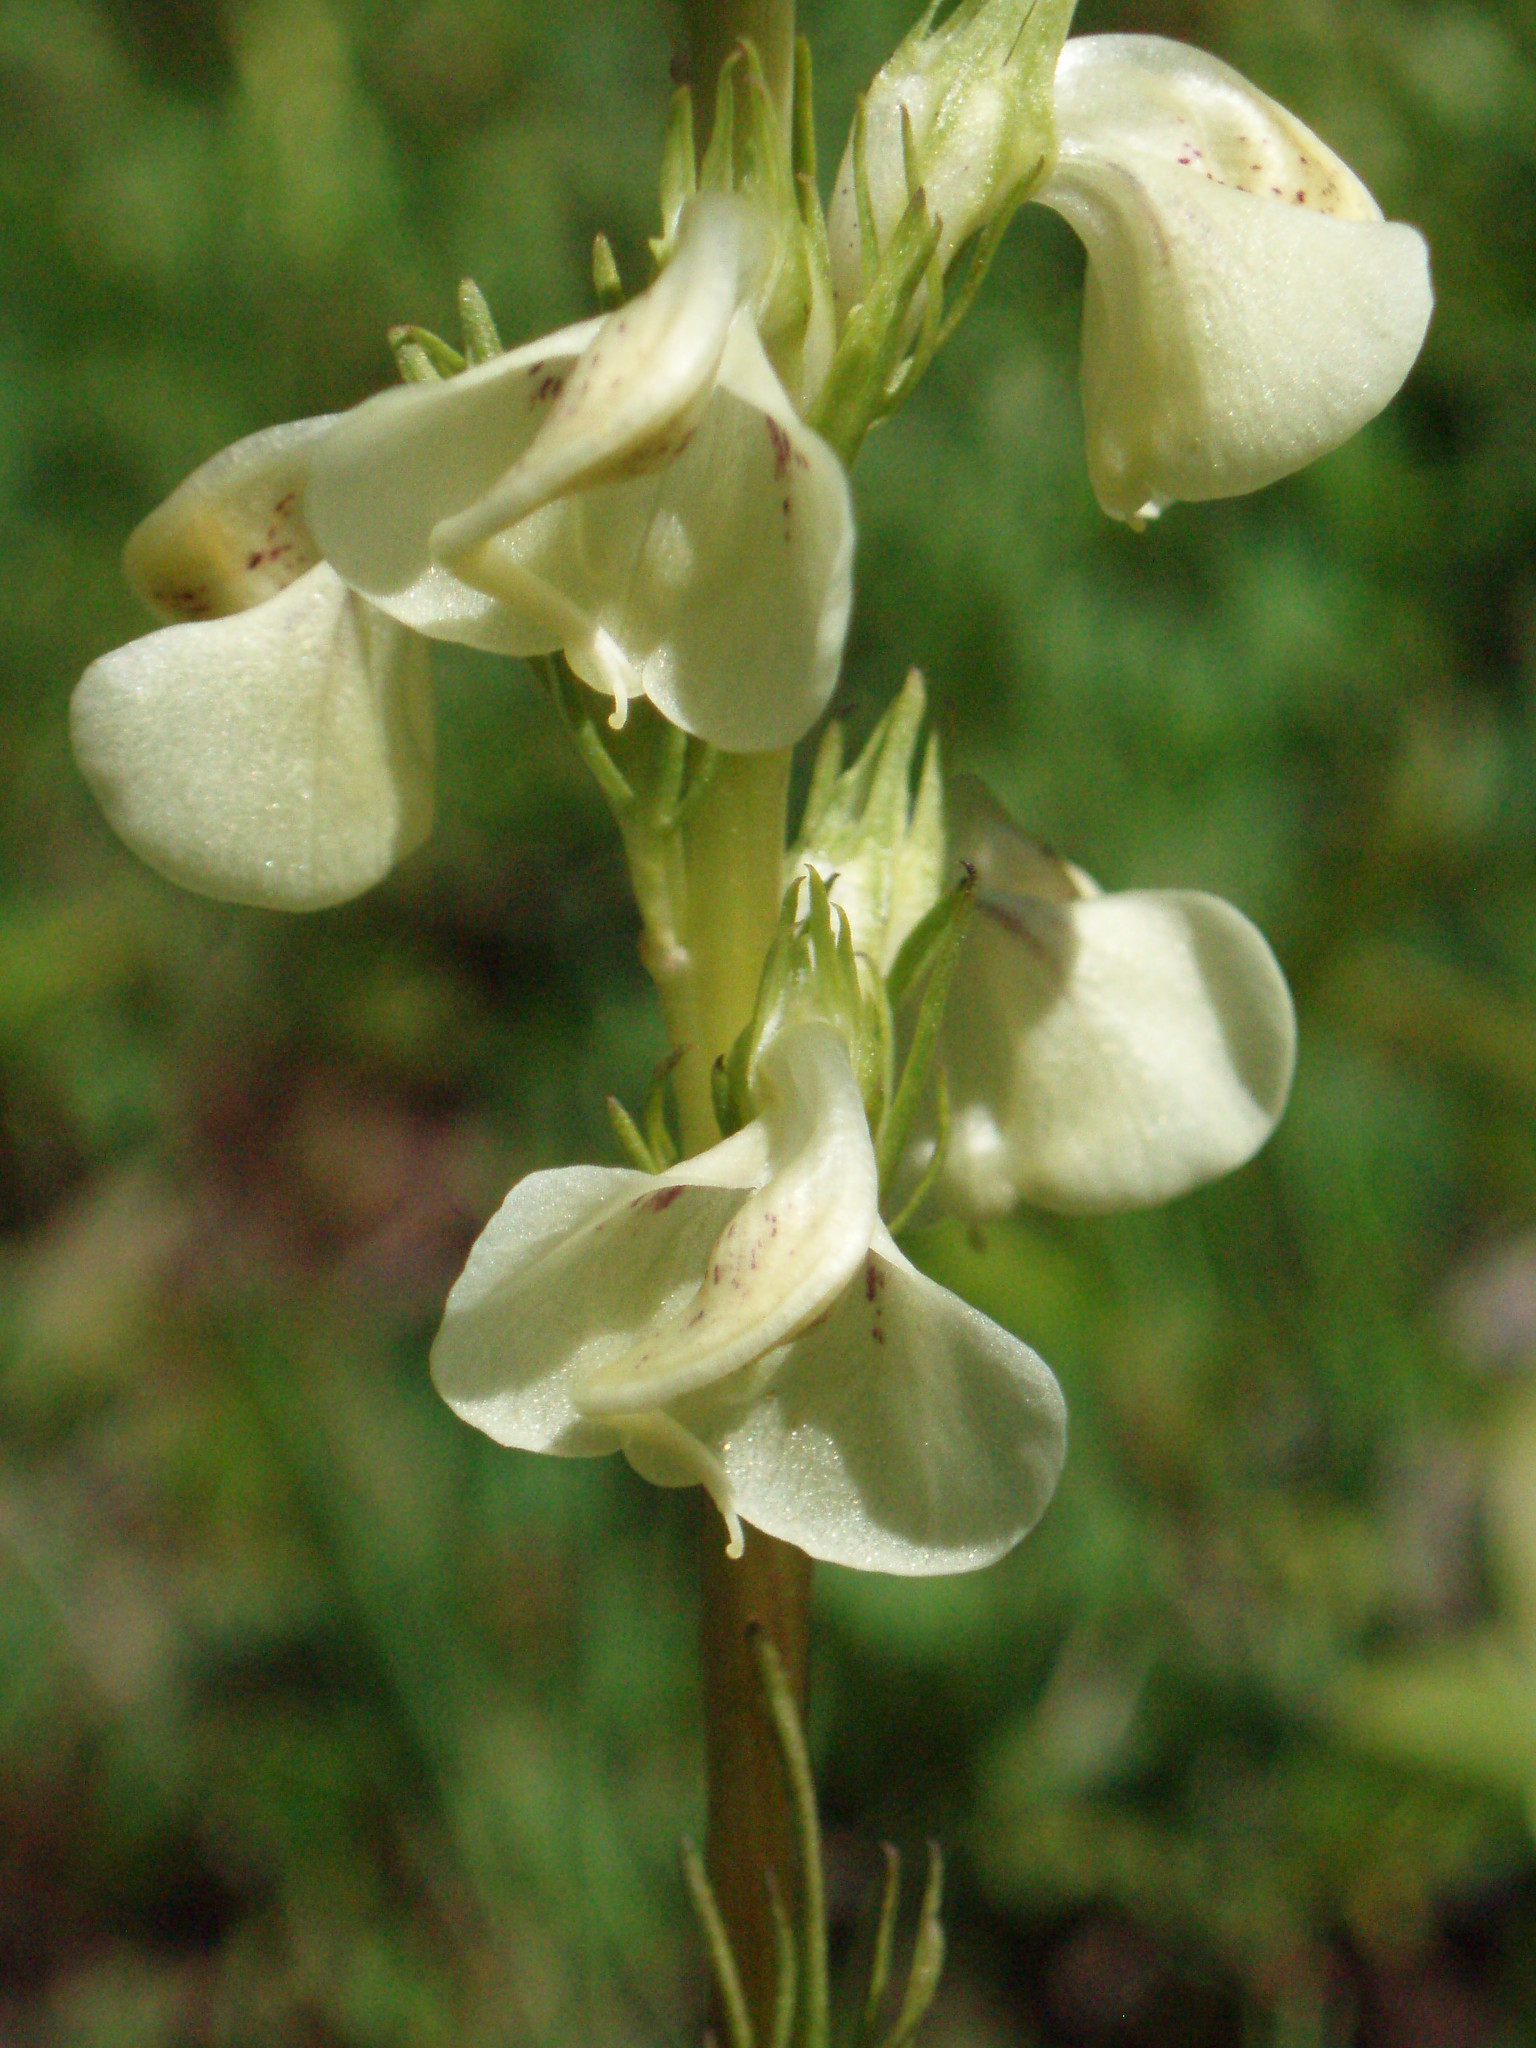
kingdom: Plantae
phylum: Tracheophyta
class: Magnoliopsida
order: Lamiales
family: Orobanchaceae
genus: Pedicularis
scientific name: Pedicularis contorta
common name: Coiled lousewort
